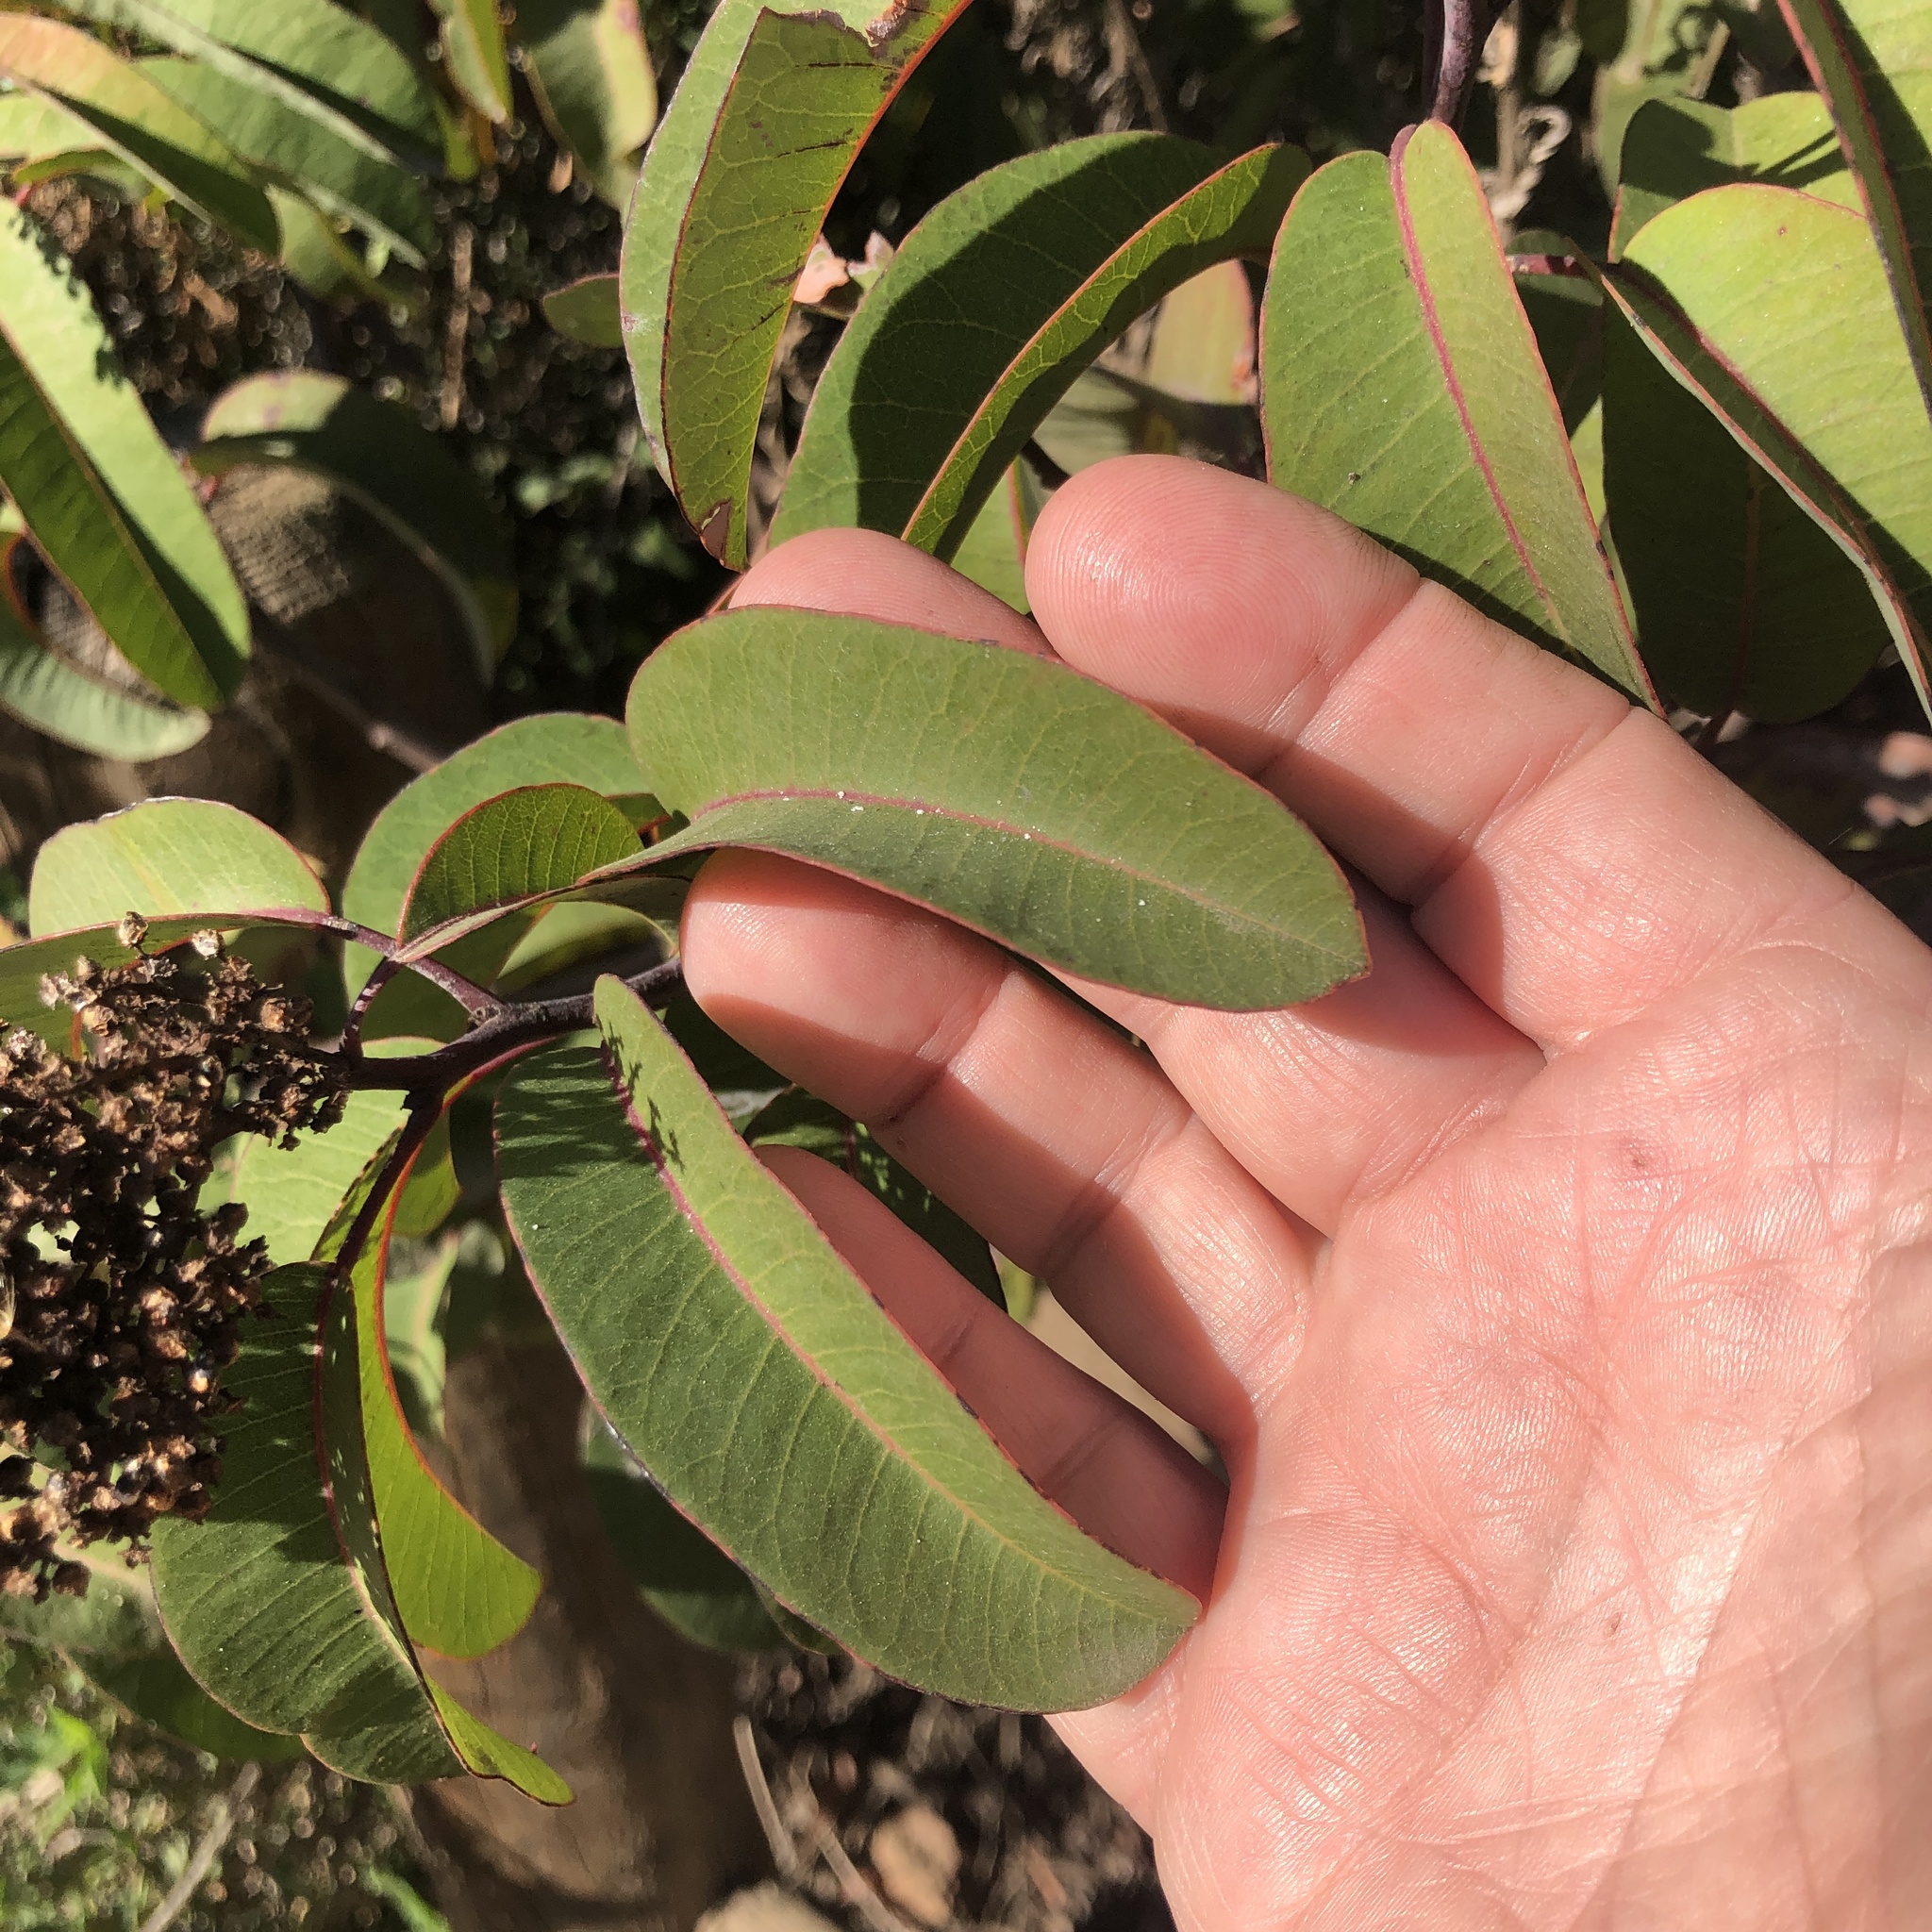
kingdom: Plantae
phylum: Tracheophyta
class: Magnoliopsida
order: Sapindales
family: Anacardiaceae
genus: Malosma
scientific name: Malosma laurina
